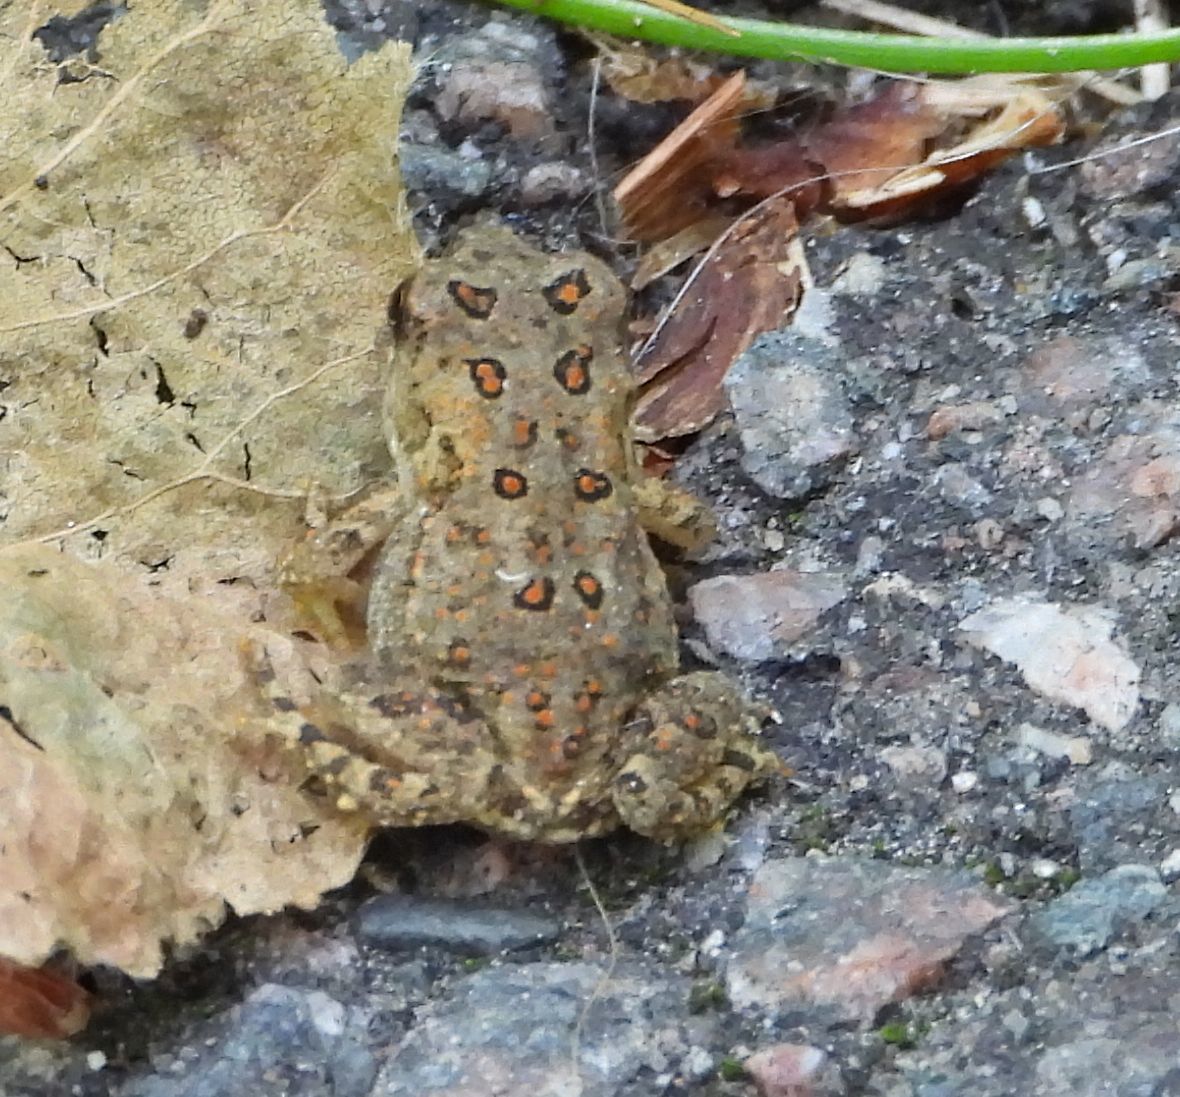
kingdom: Animalia
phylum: Chordata
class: Amphibia
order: Anura
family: Bufonidae
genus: Anaxyrus
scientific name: Anaxyrus americanus
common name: American toad
